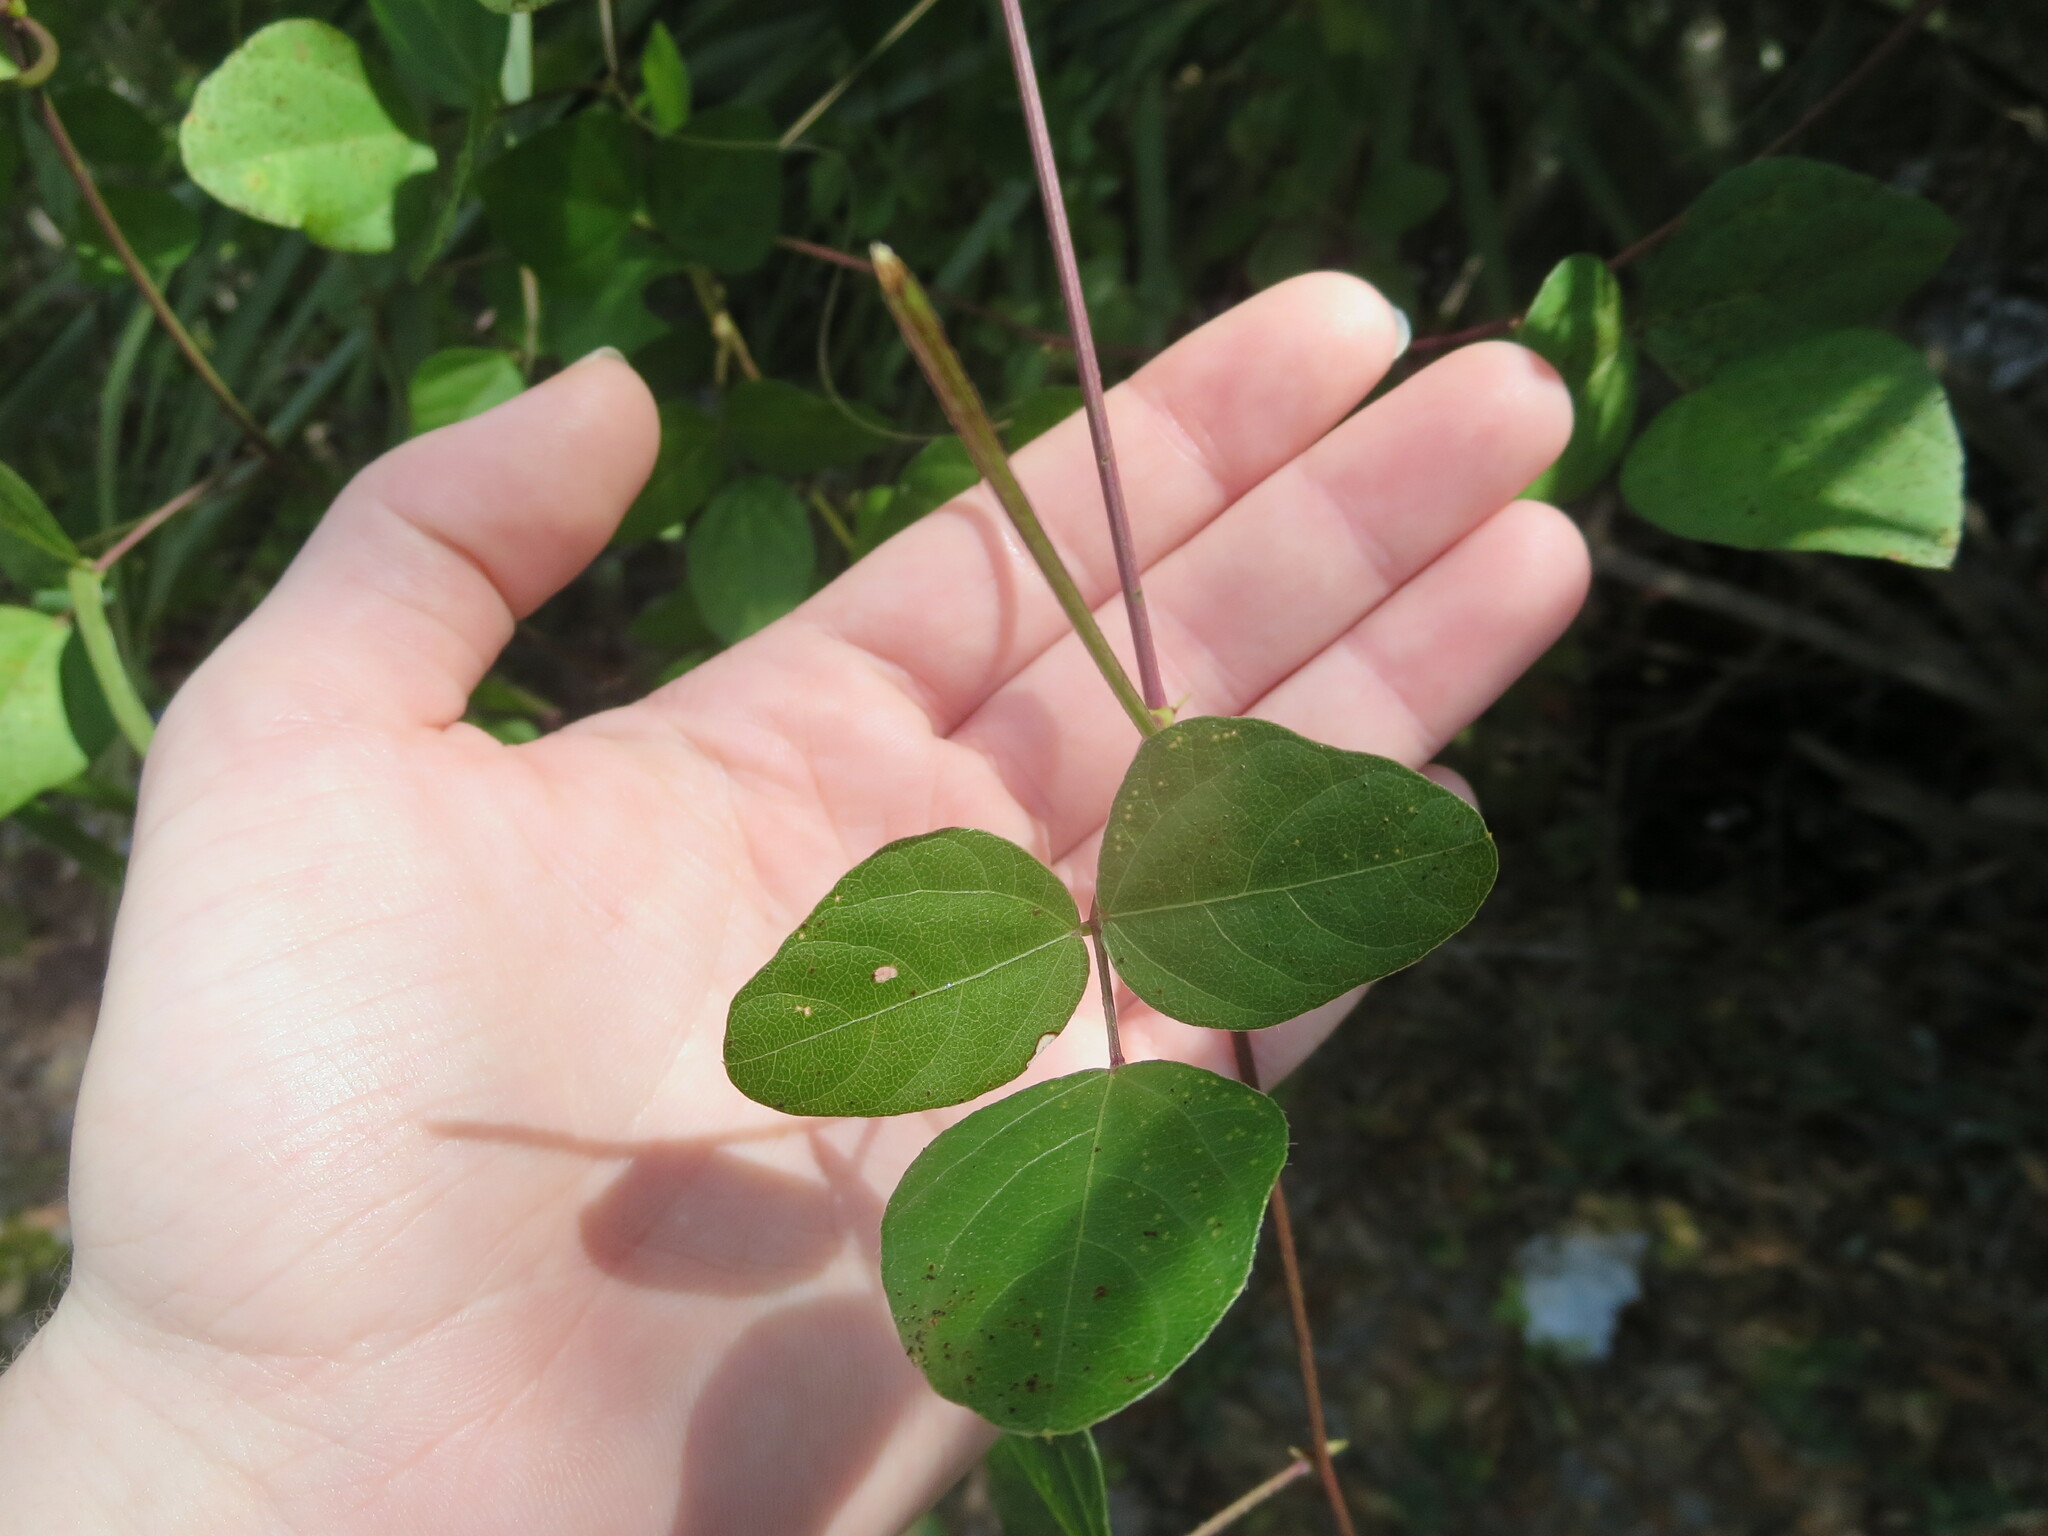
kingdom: Plantae
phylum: Tracheophyta
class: Magnoliopsida
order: Fabales
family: Fabaceae
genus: Strophostyles
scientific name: Strophostyles helvola
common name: Trailing wild bean
